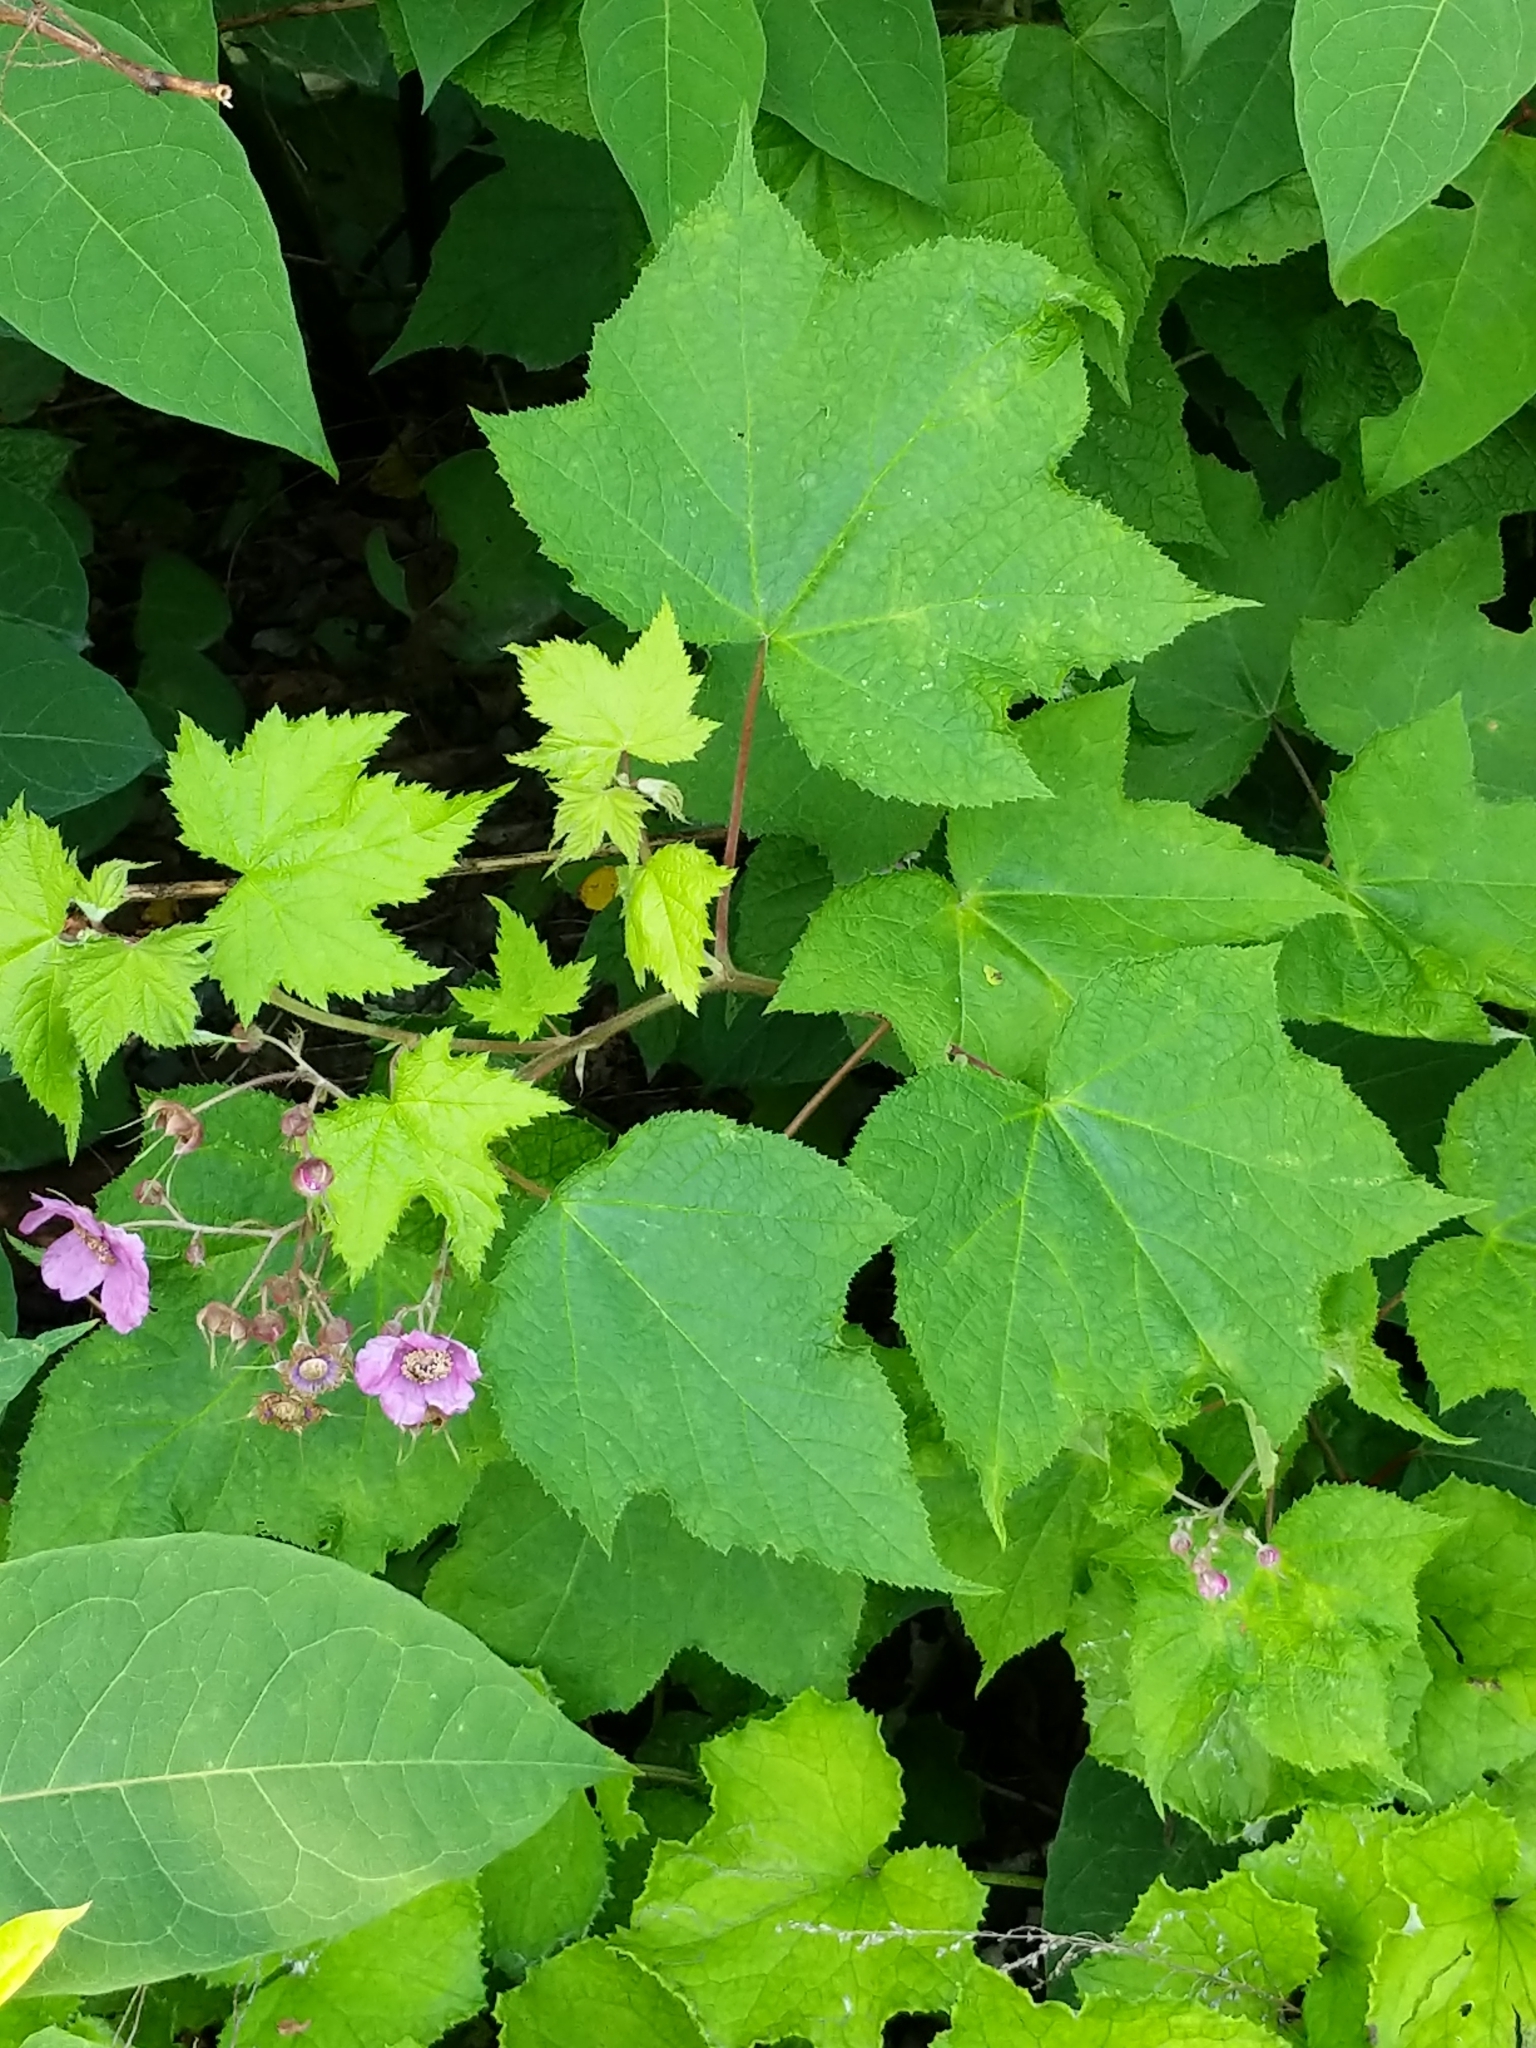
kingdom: Plantae
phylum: Tracheophyta
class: Magnoliopsida
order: Rosales
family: Rosaceae
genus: Rubus
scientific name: Rubus odoratus
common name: Purple-flowered raspberry
